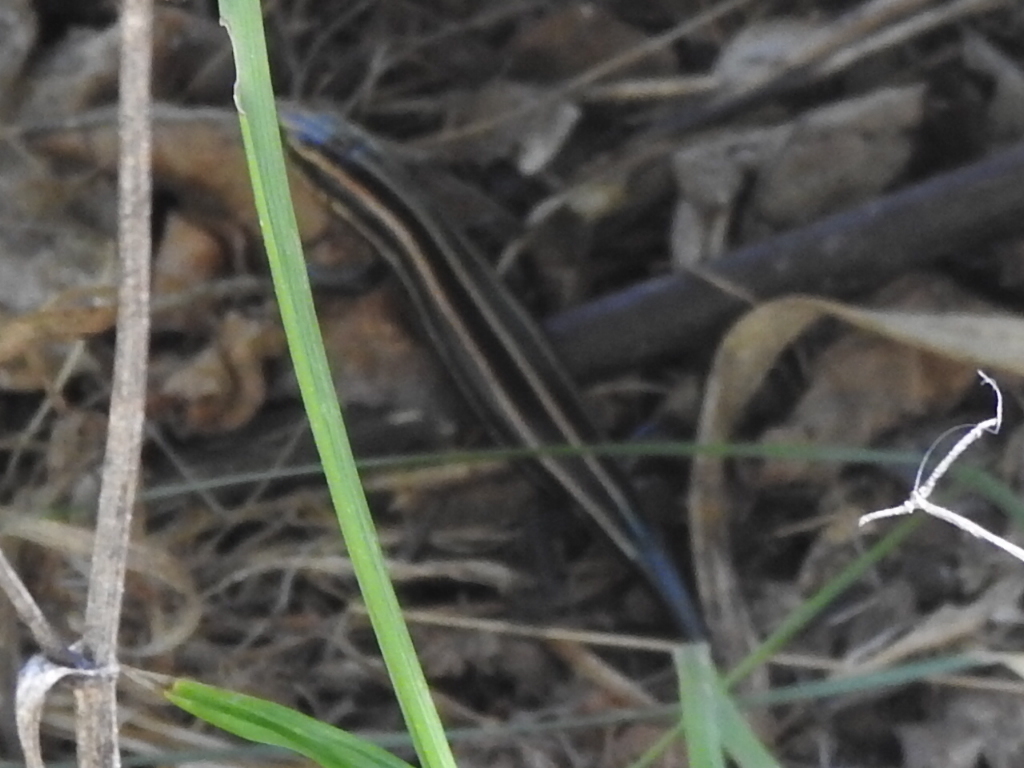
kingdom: Animalia
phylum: Chordata
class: Squamata
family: Scincidae
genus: Plestiodon
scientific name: Plestiodon fasciatus
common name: Five-lined skink
